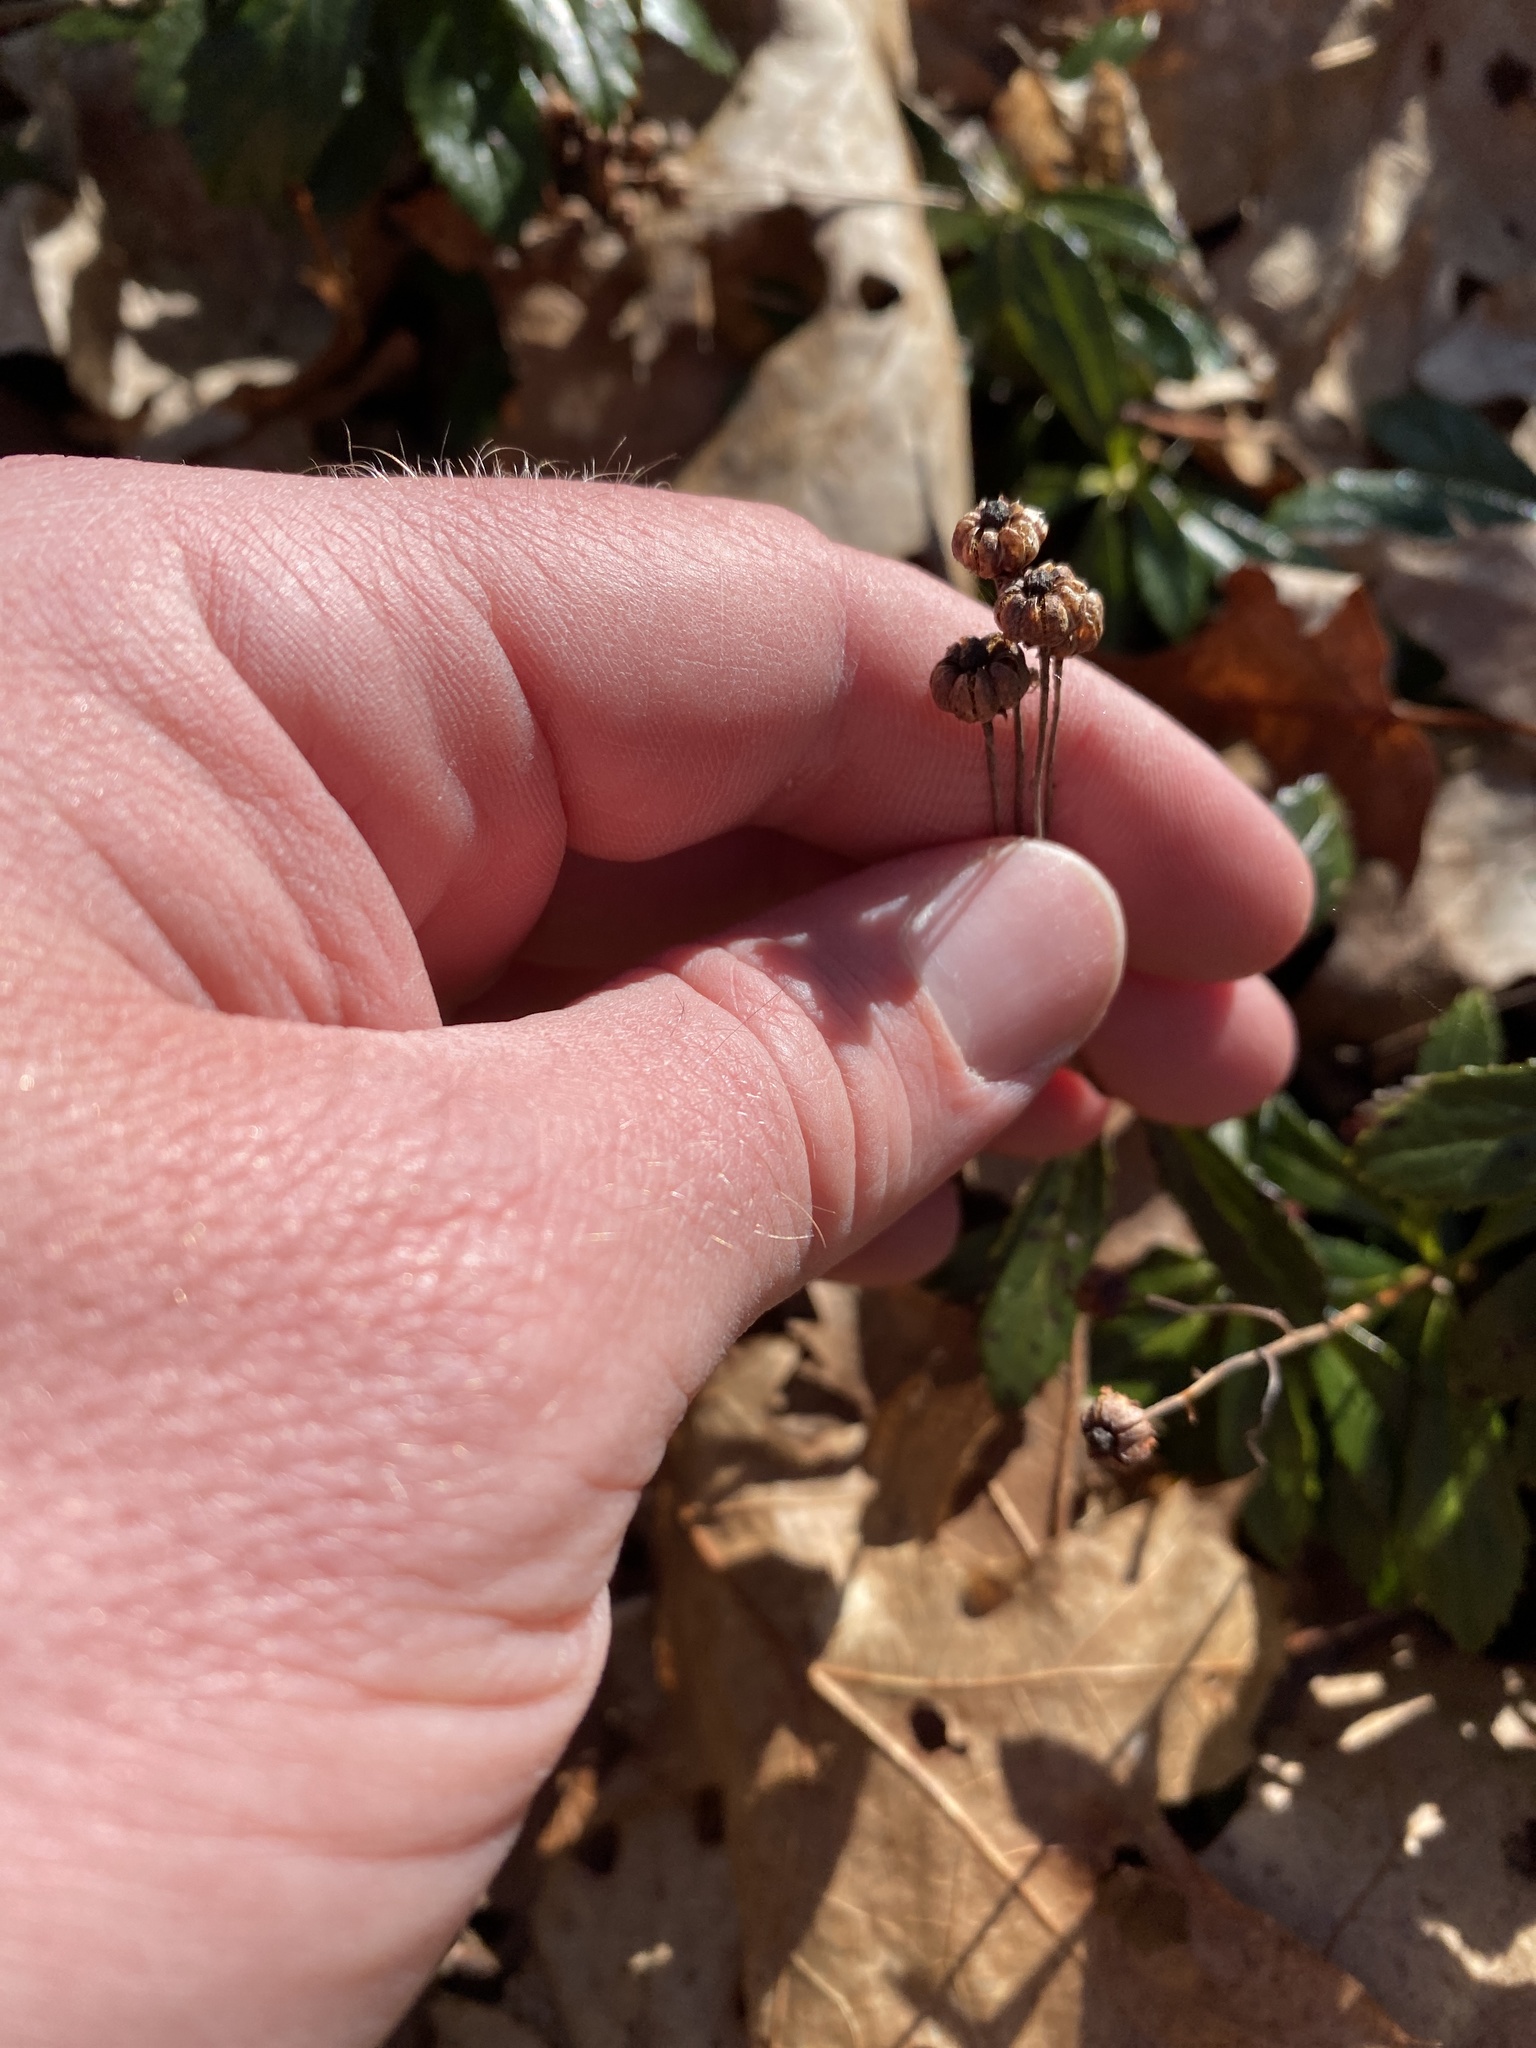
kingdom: Plantae
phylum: Tracheophyta
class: Magnoliopsida
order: Ericales
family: Ericaceae
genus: Chimaphila
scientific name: Chimaphila umbellata
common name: Pipsissewa
